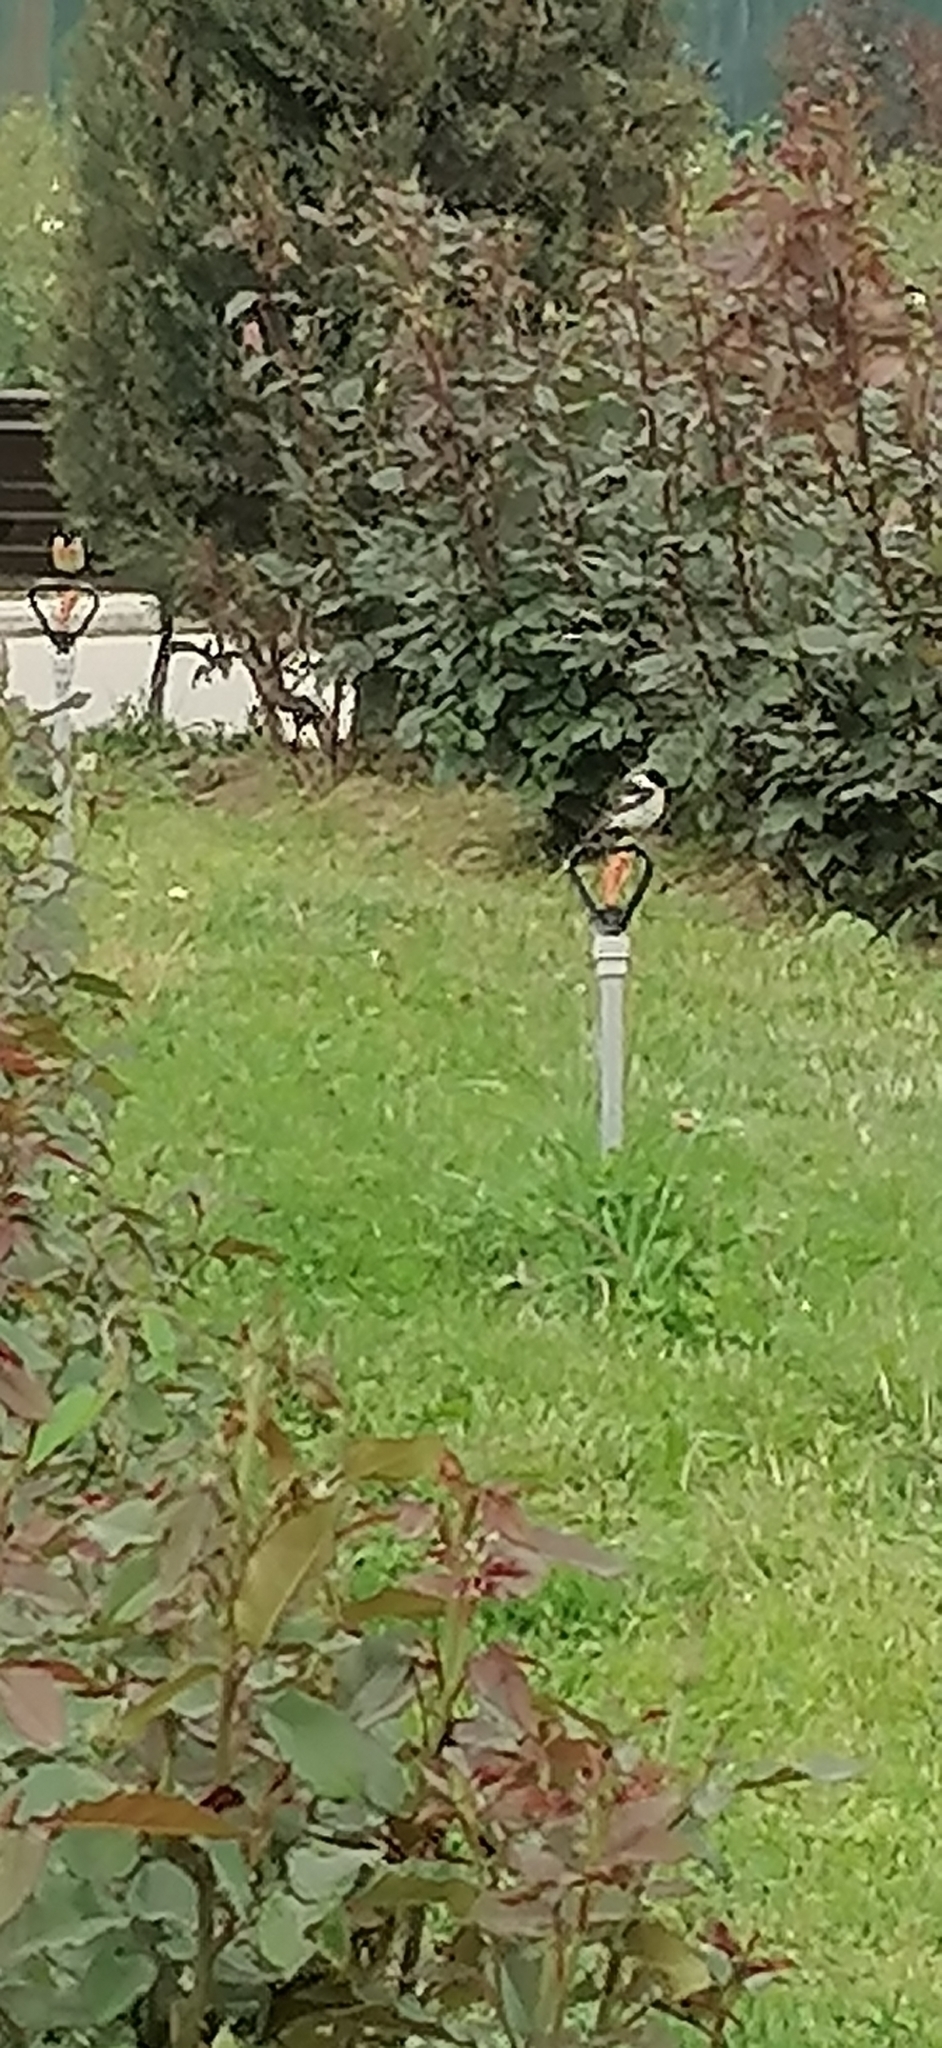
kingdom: Animalia
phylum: Chordata
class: Aves
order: Passeriformes
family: Muscicapidae
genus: Saxicola
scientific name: Saxicola maurus
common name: Siberian stonechat
